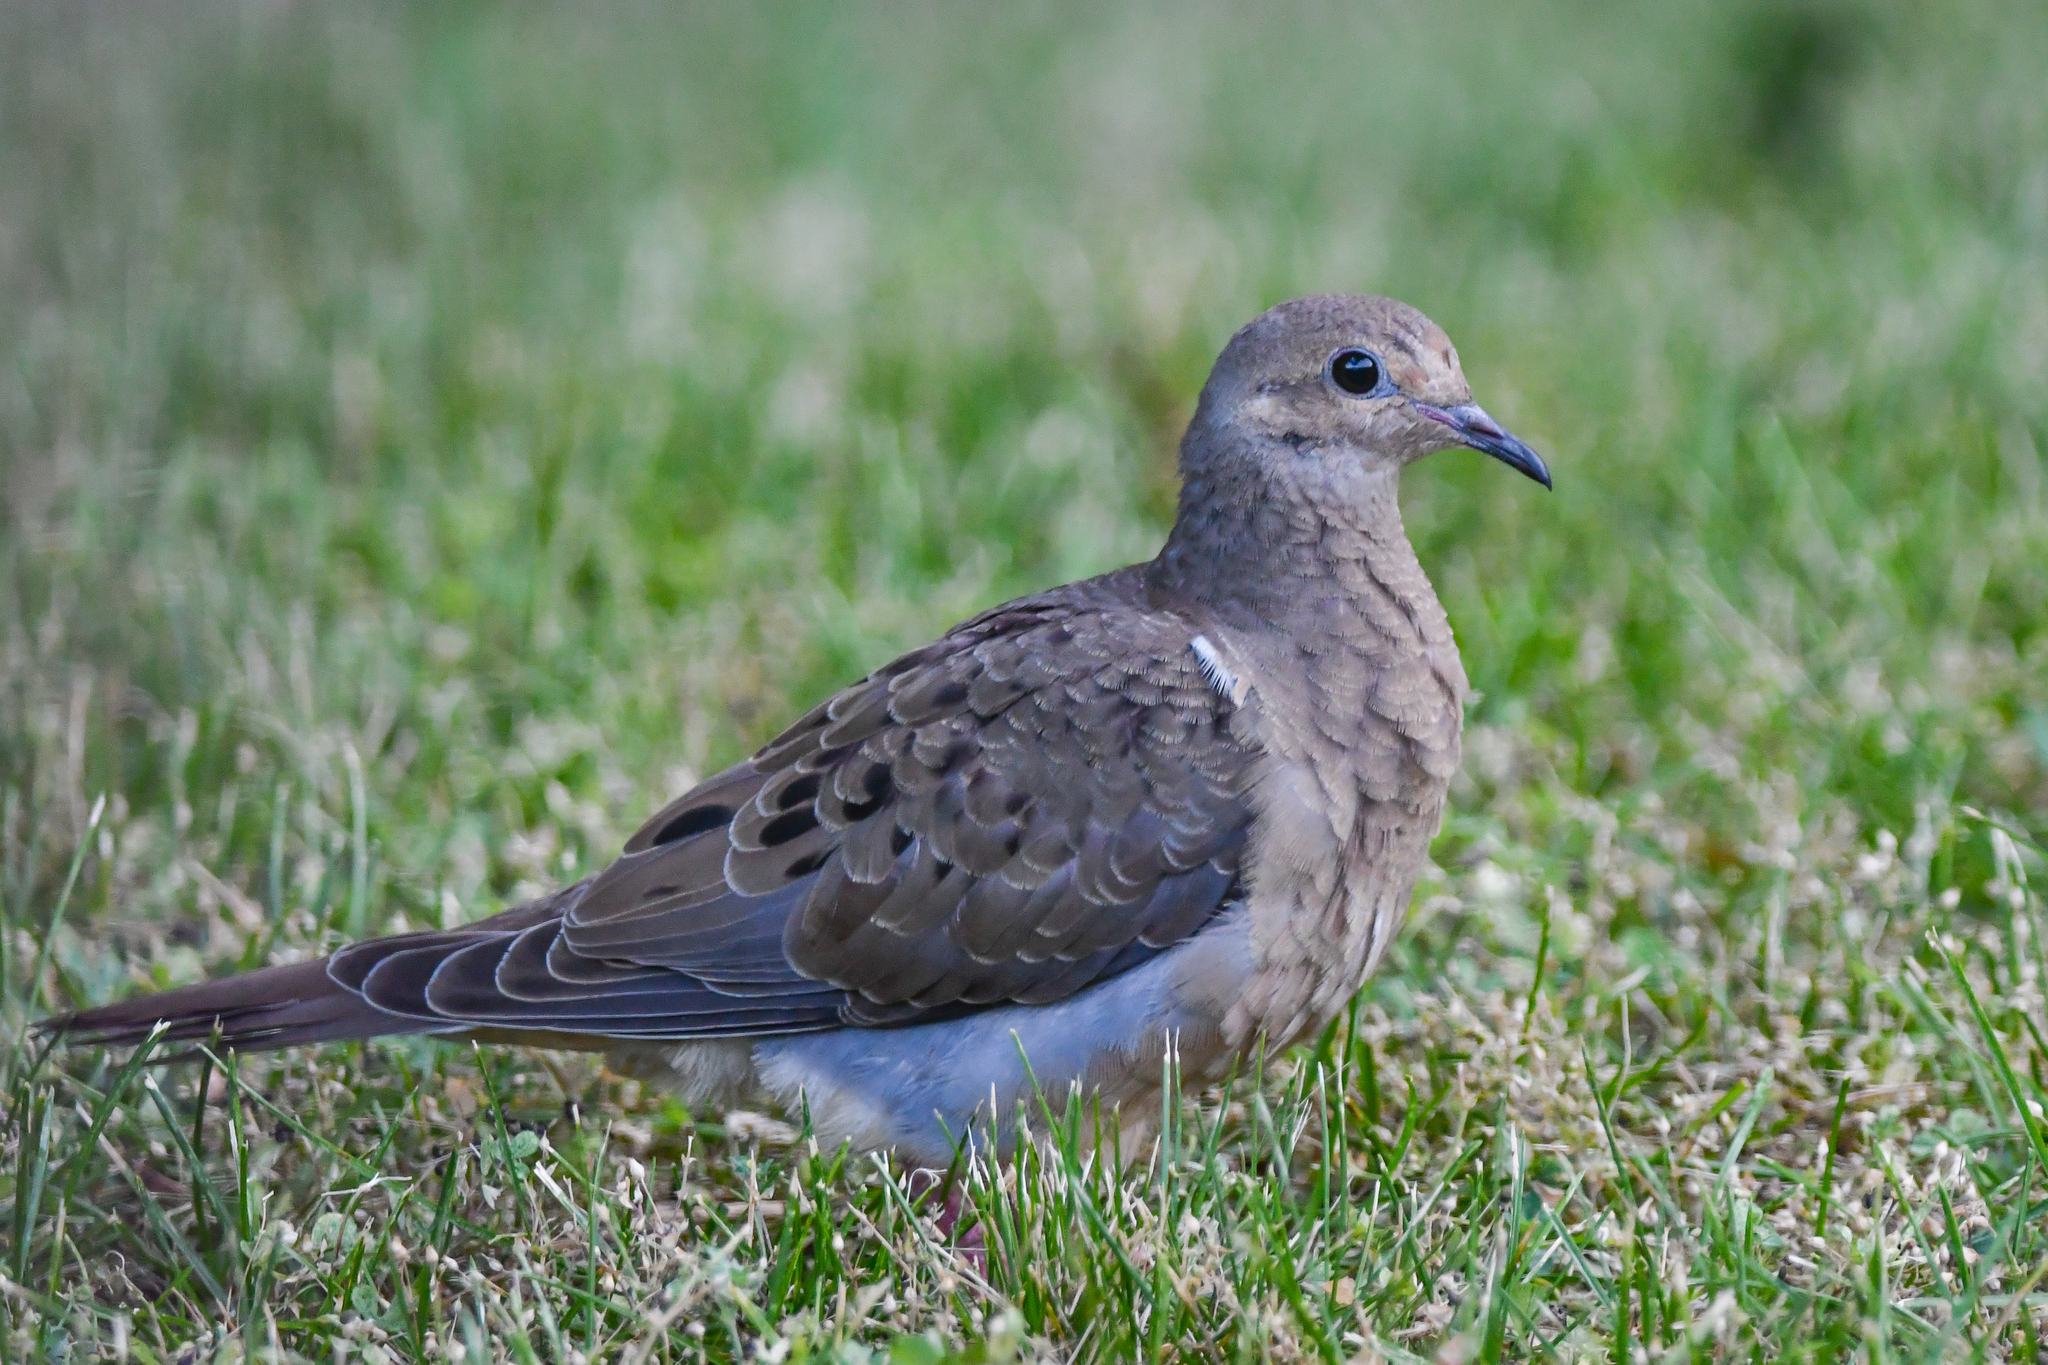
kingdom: Animalia
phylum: Chordata
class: Aves
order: Columbiformes
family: Columbidae
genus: Zenaida
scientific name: Zenaida macroura
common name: Mourning dove
